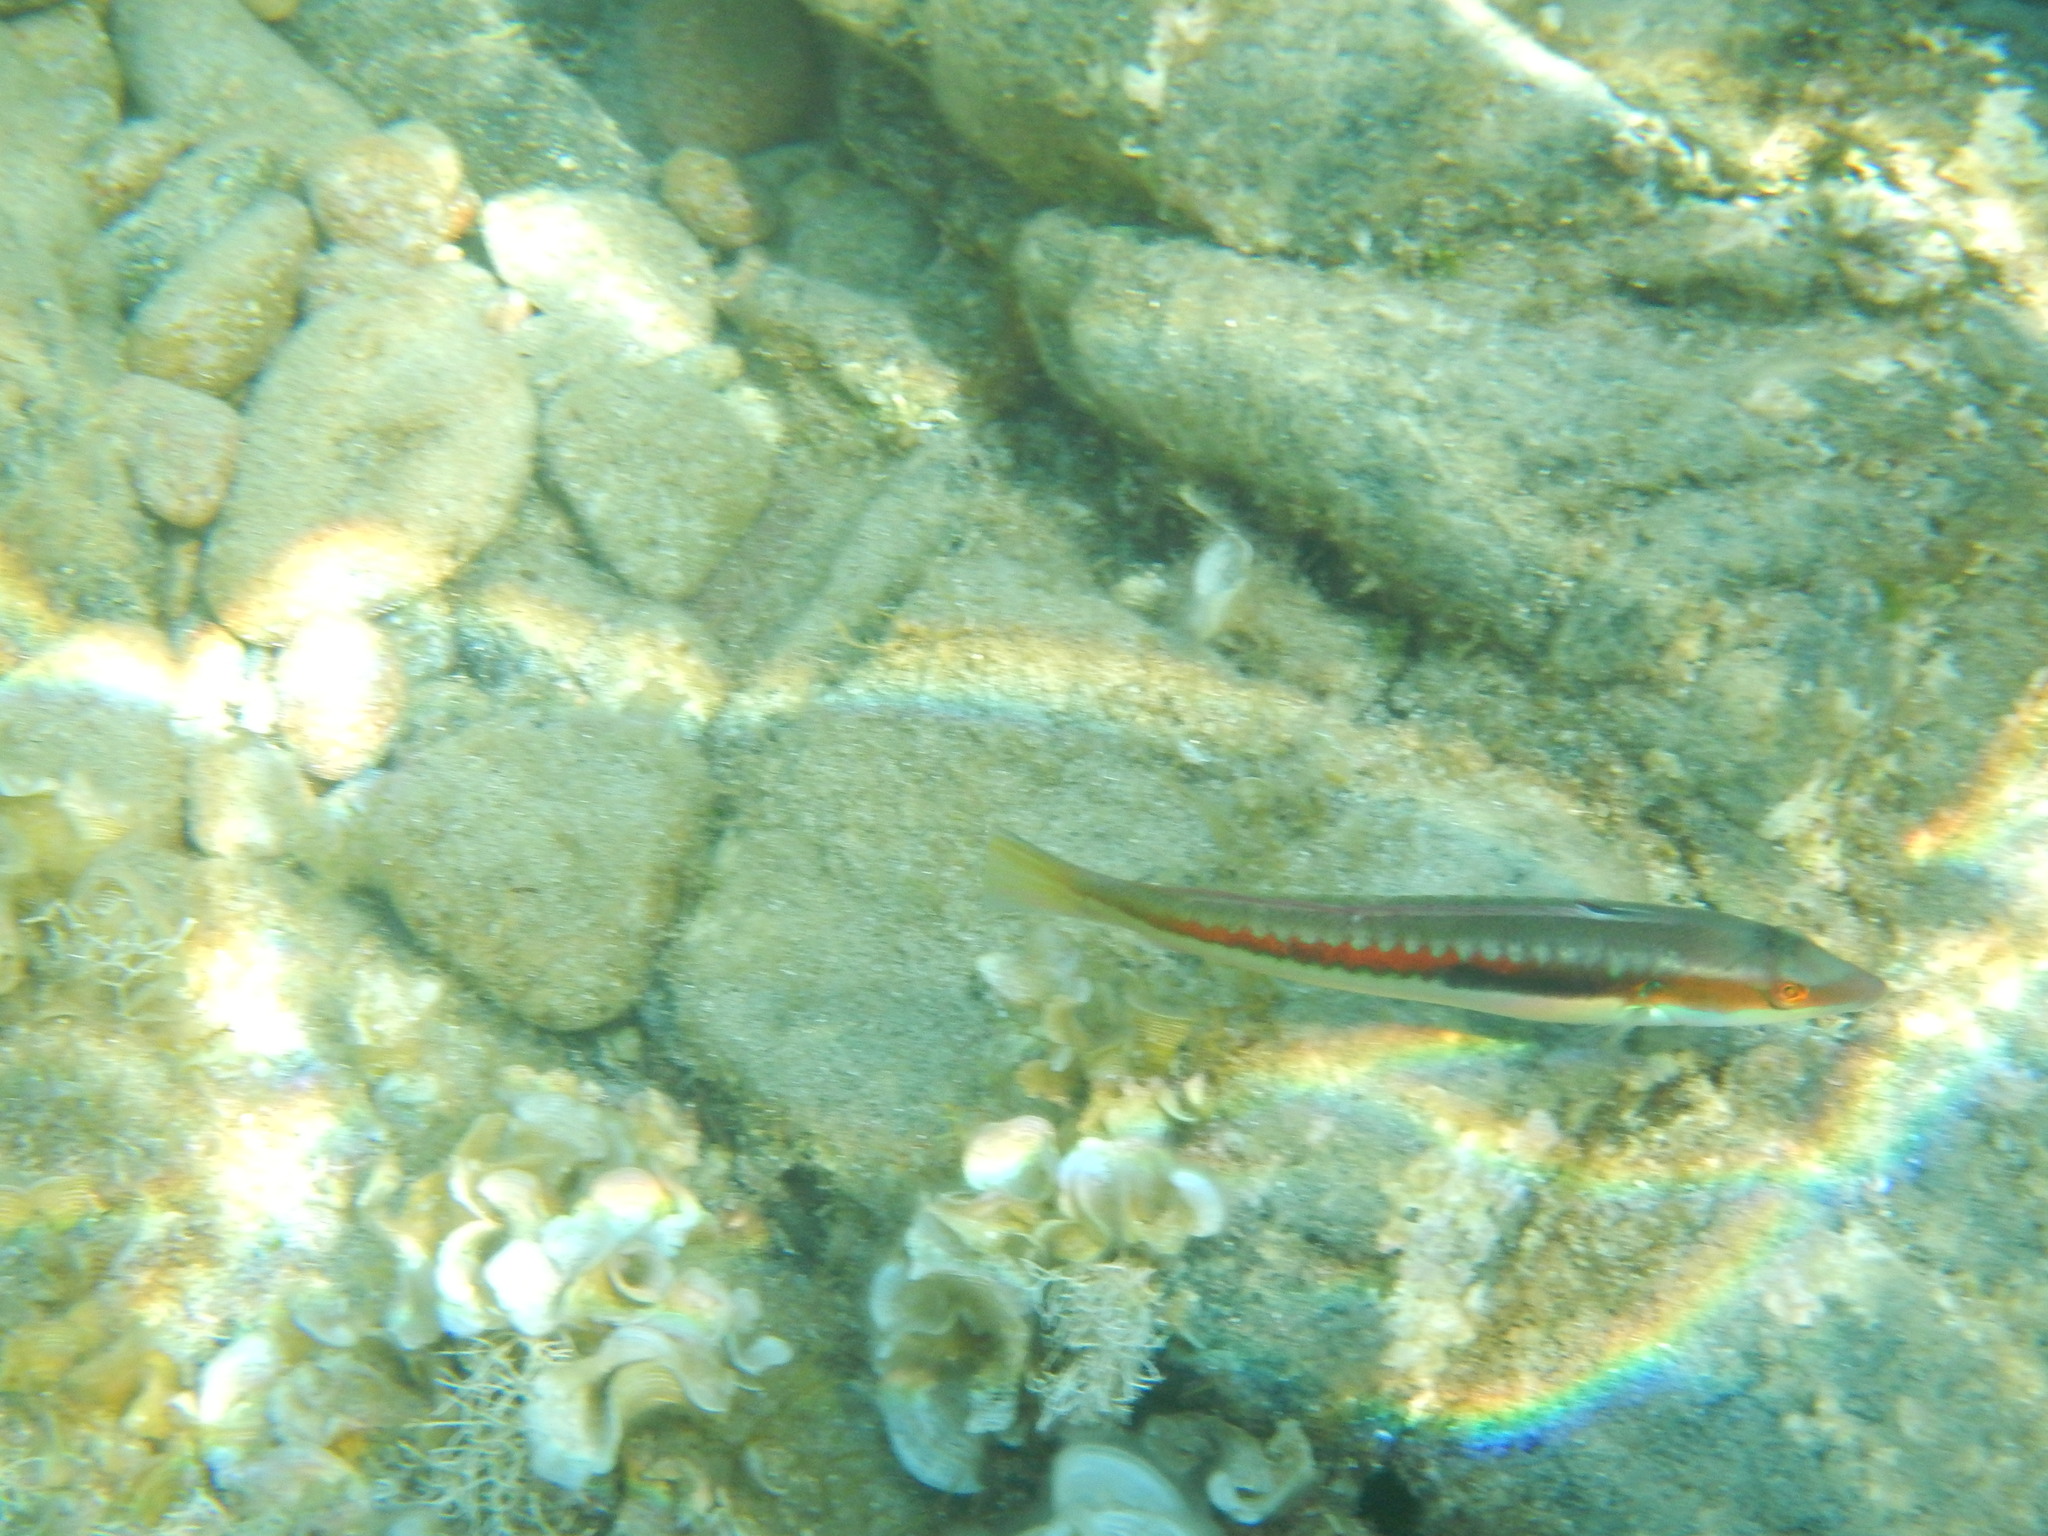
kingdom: Animalia
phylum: Chordata
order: Perciformes
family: Labridae
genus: Coris
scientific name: Coris julis
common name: Rainbow wrasse
